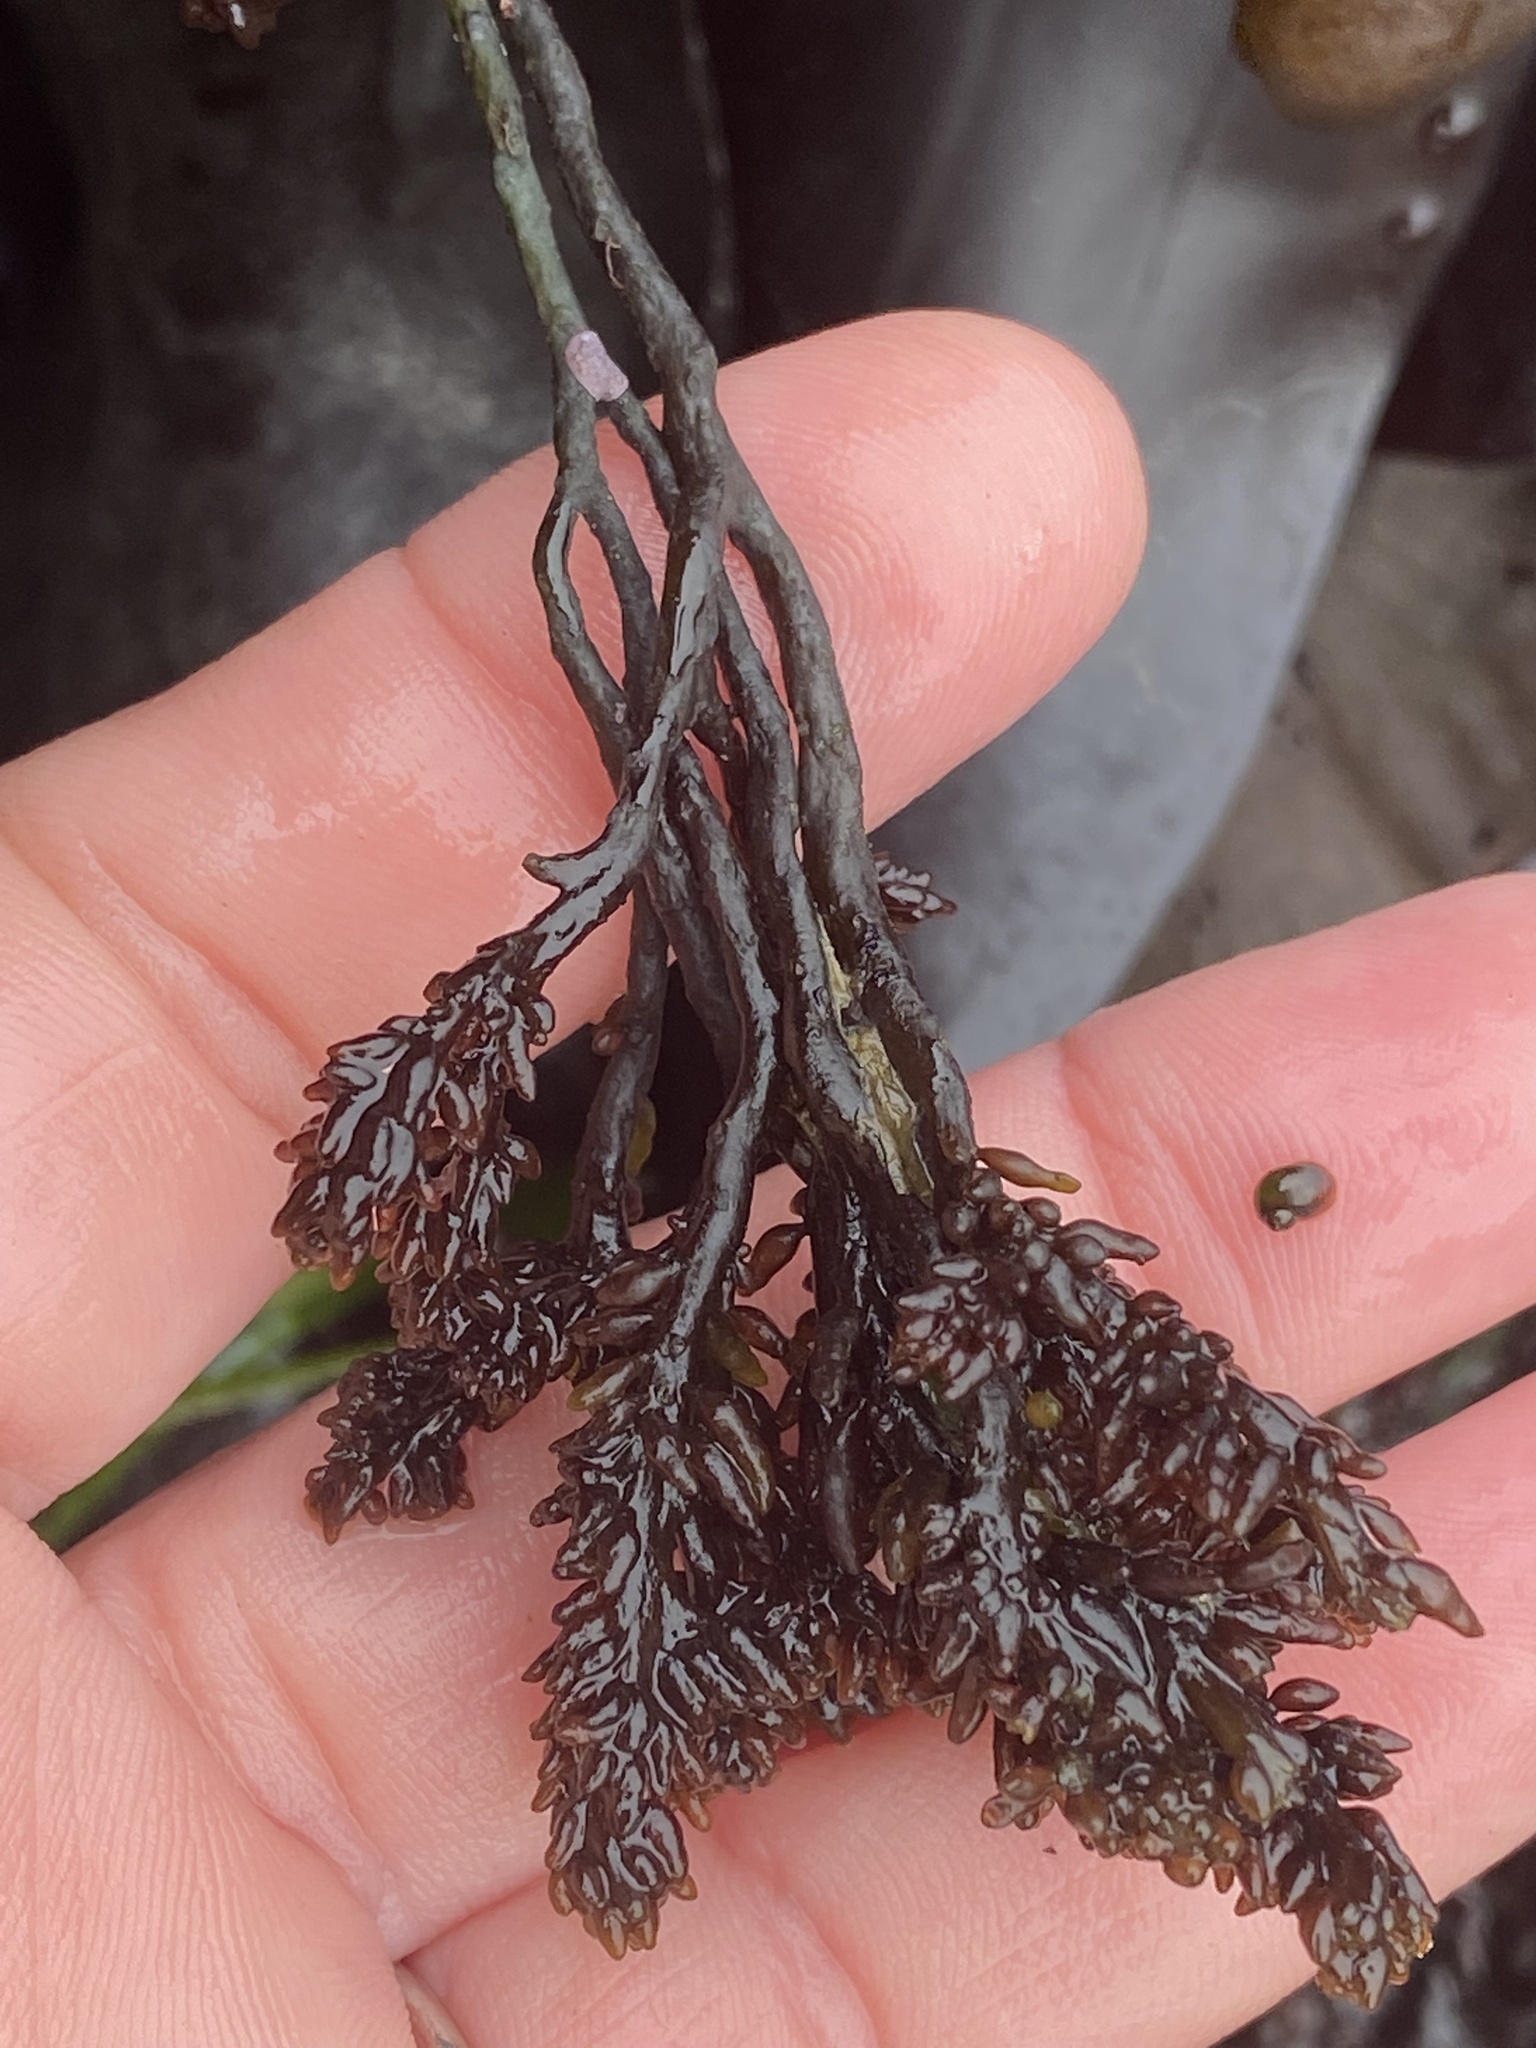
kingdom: Plantae
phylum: Rhodophyta
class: Florideophyceae
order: Rhodymeniales
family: Champiaceae
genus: Neogastroclonium
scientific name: Neogastroclonium subarticulatum
